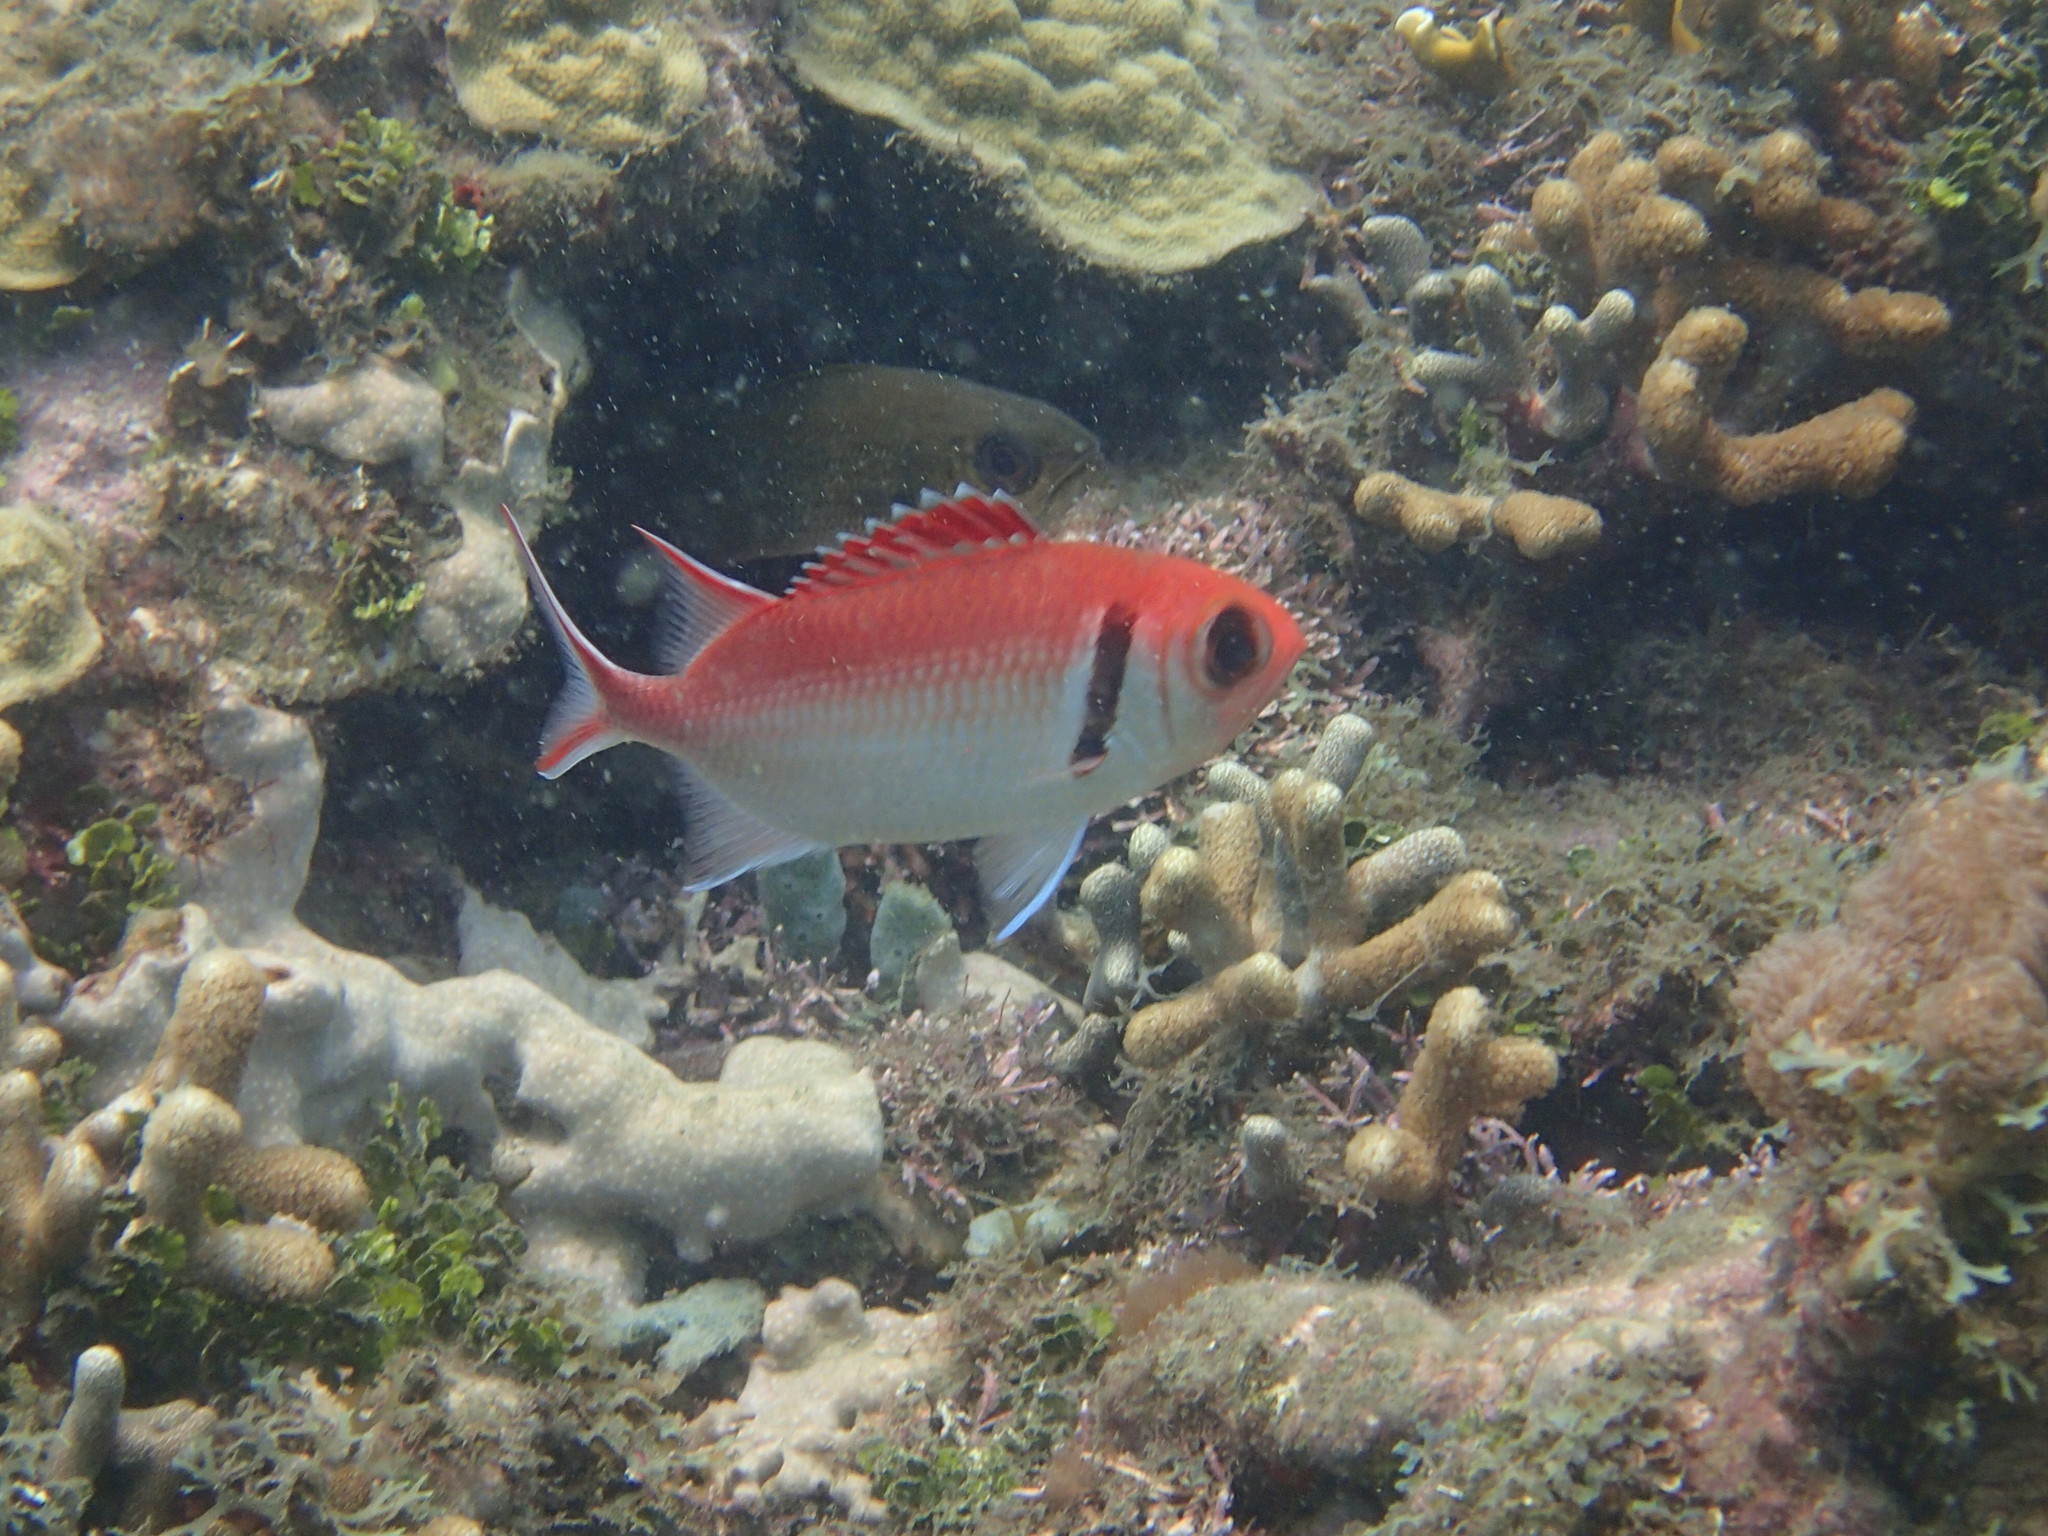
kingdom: Animalia
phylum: Chordata
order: Beryciformes
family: Holocentridae
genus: Myripristis
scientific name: Myripristis jacobus
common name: Blackbar soldierfish
